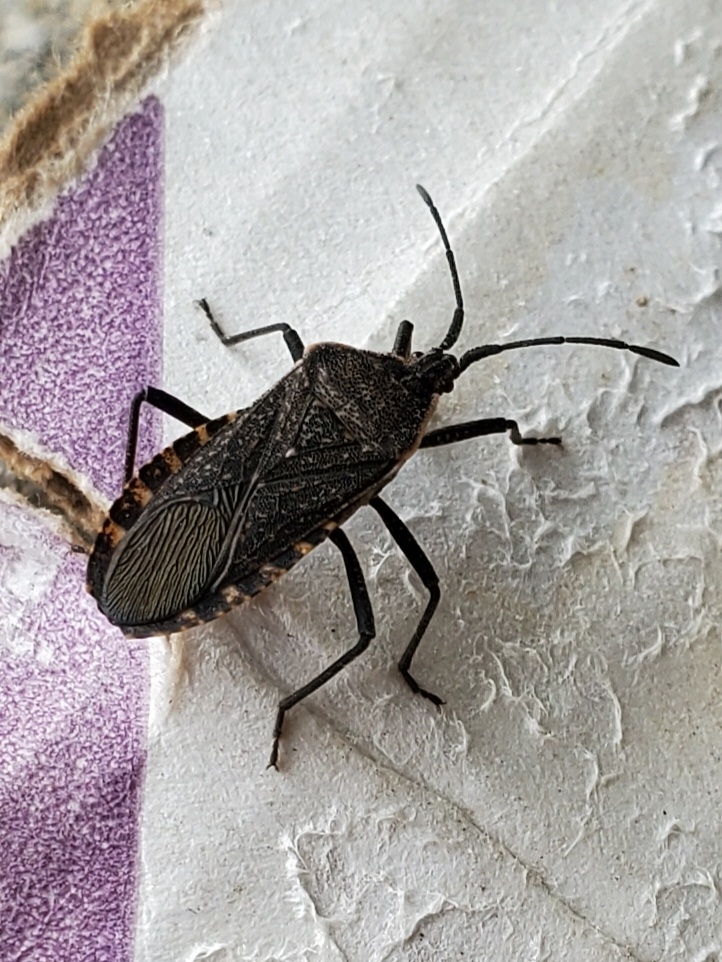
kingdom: Animalia
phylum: Arthropoda
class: Insecta
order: Hemiptera
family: Coreidae
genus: Anasa
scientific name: Anasa tristis
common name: Squash bug
